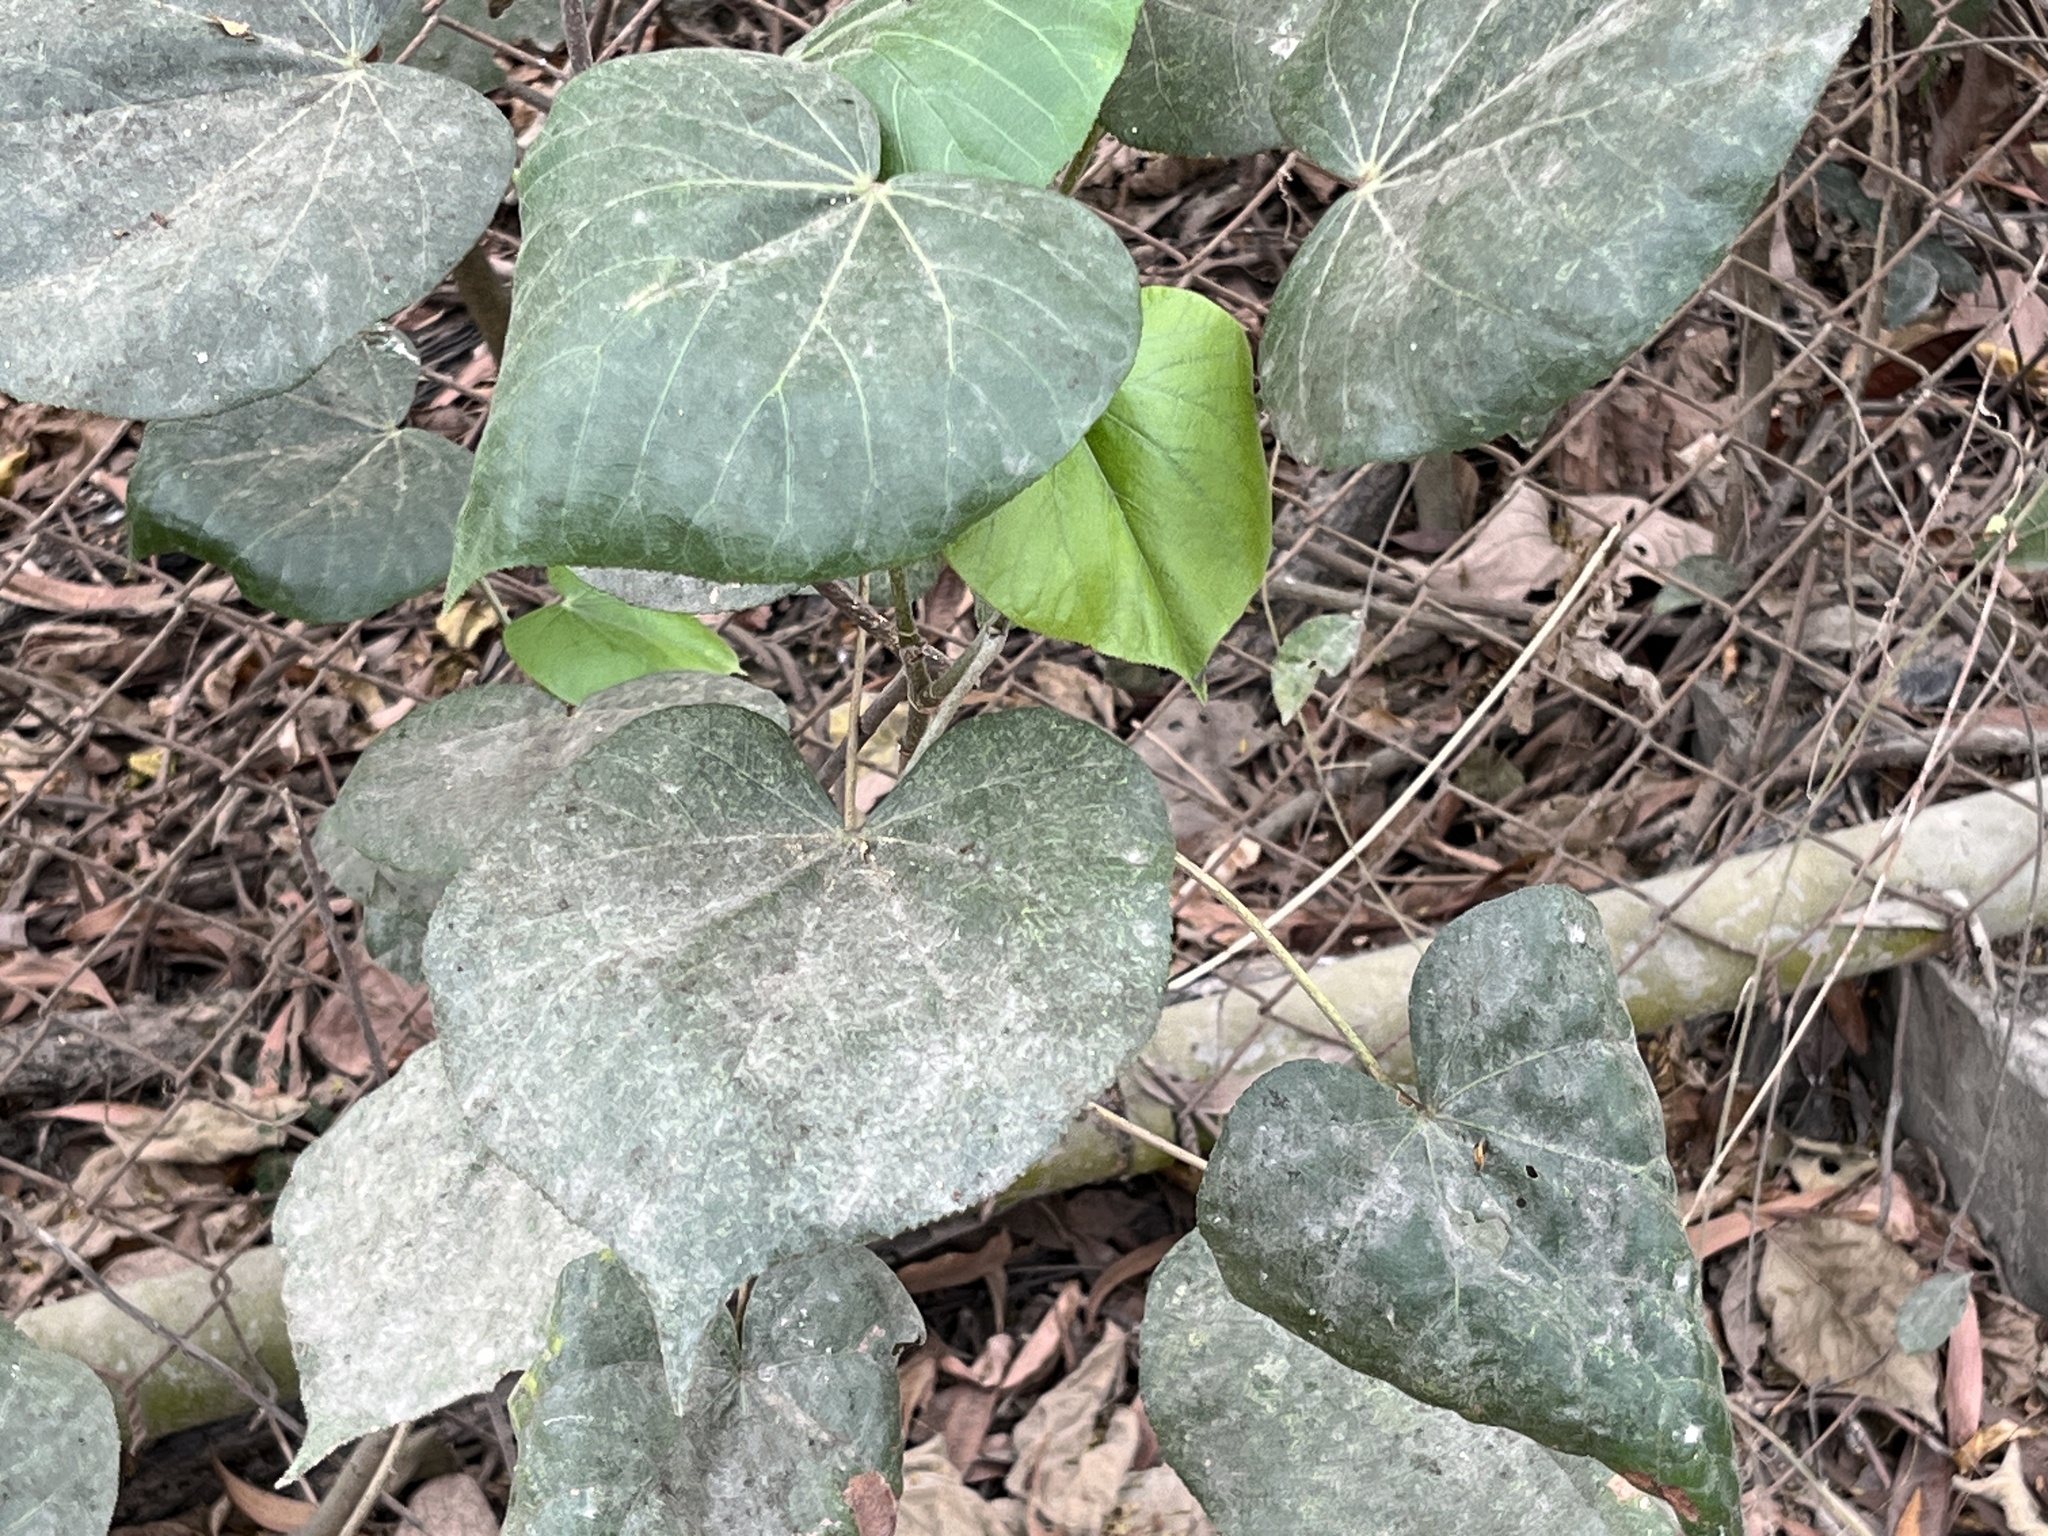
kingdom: Plantae
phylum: Tracheophyta
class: Magnoliopsida
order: Malvales
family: Malvaceae
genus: Talipariti
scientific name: Talipariti tiliaceum
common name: Sea hibiscus
